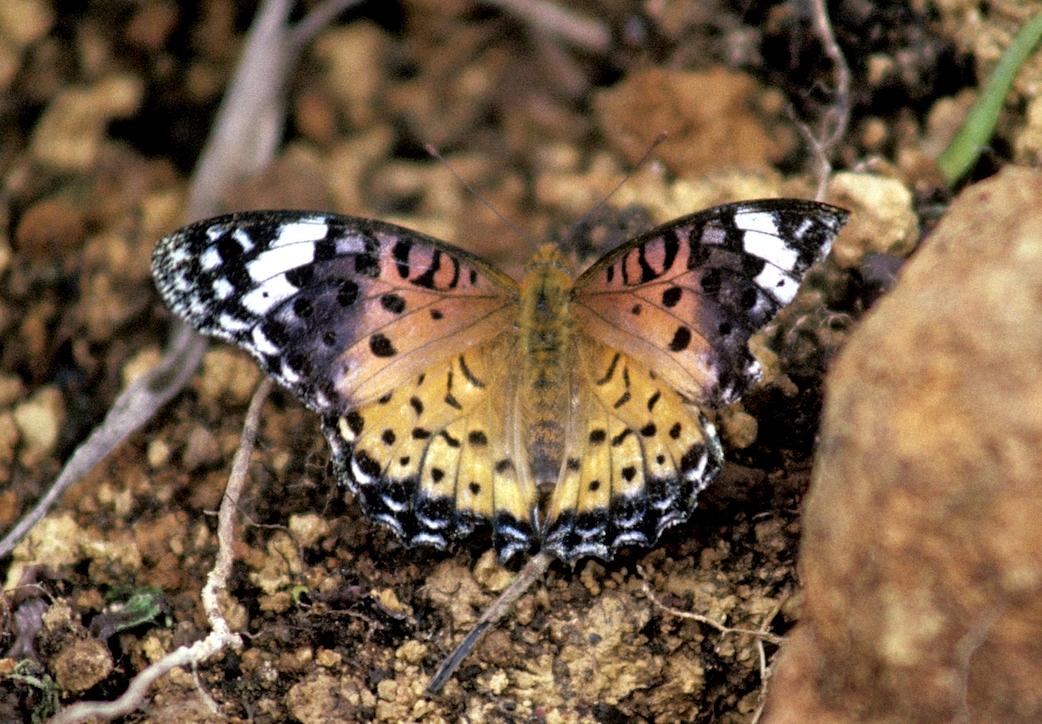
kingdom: Animalia
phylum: Arthropoda
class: Insecta
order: Lepidoptera
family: Nymphalidae
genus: Argynnis
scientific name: Argynnis hyperbius
